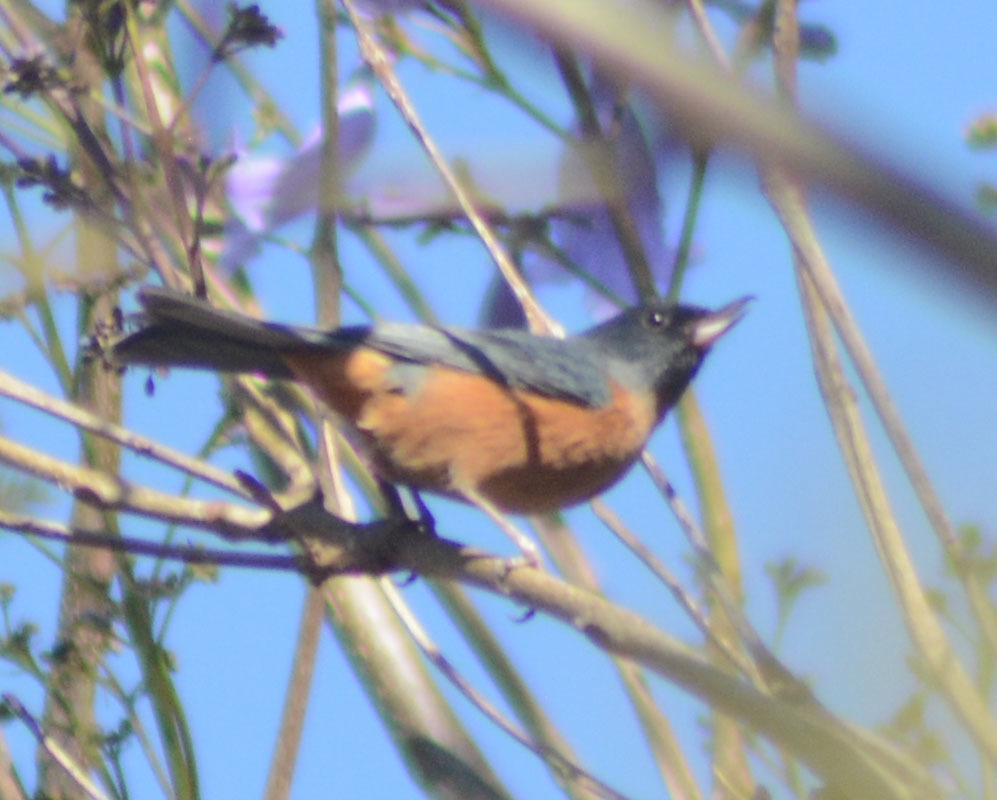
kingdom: Animalia
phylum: Chordata
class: Aves
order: Passeriformes
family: Thraupidae
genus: Diglossa
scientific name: Diglossa baritula
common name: Cinnamon-bellied flowerpiercer
